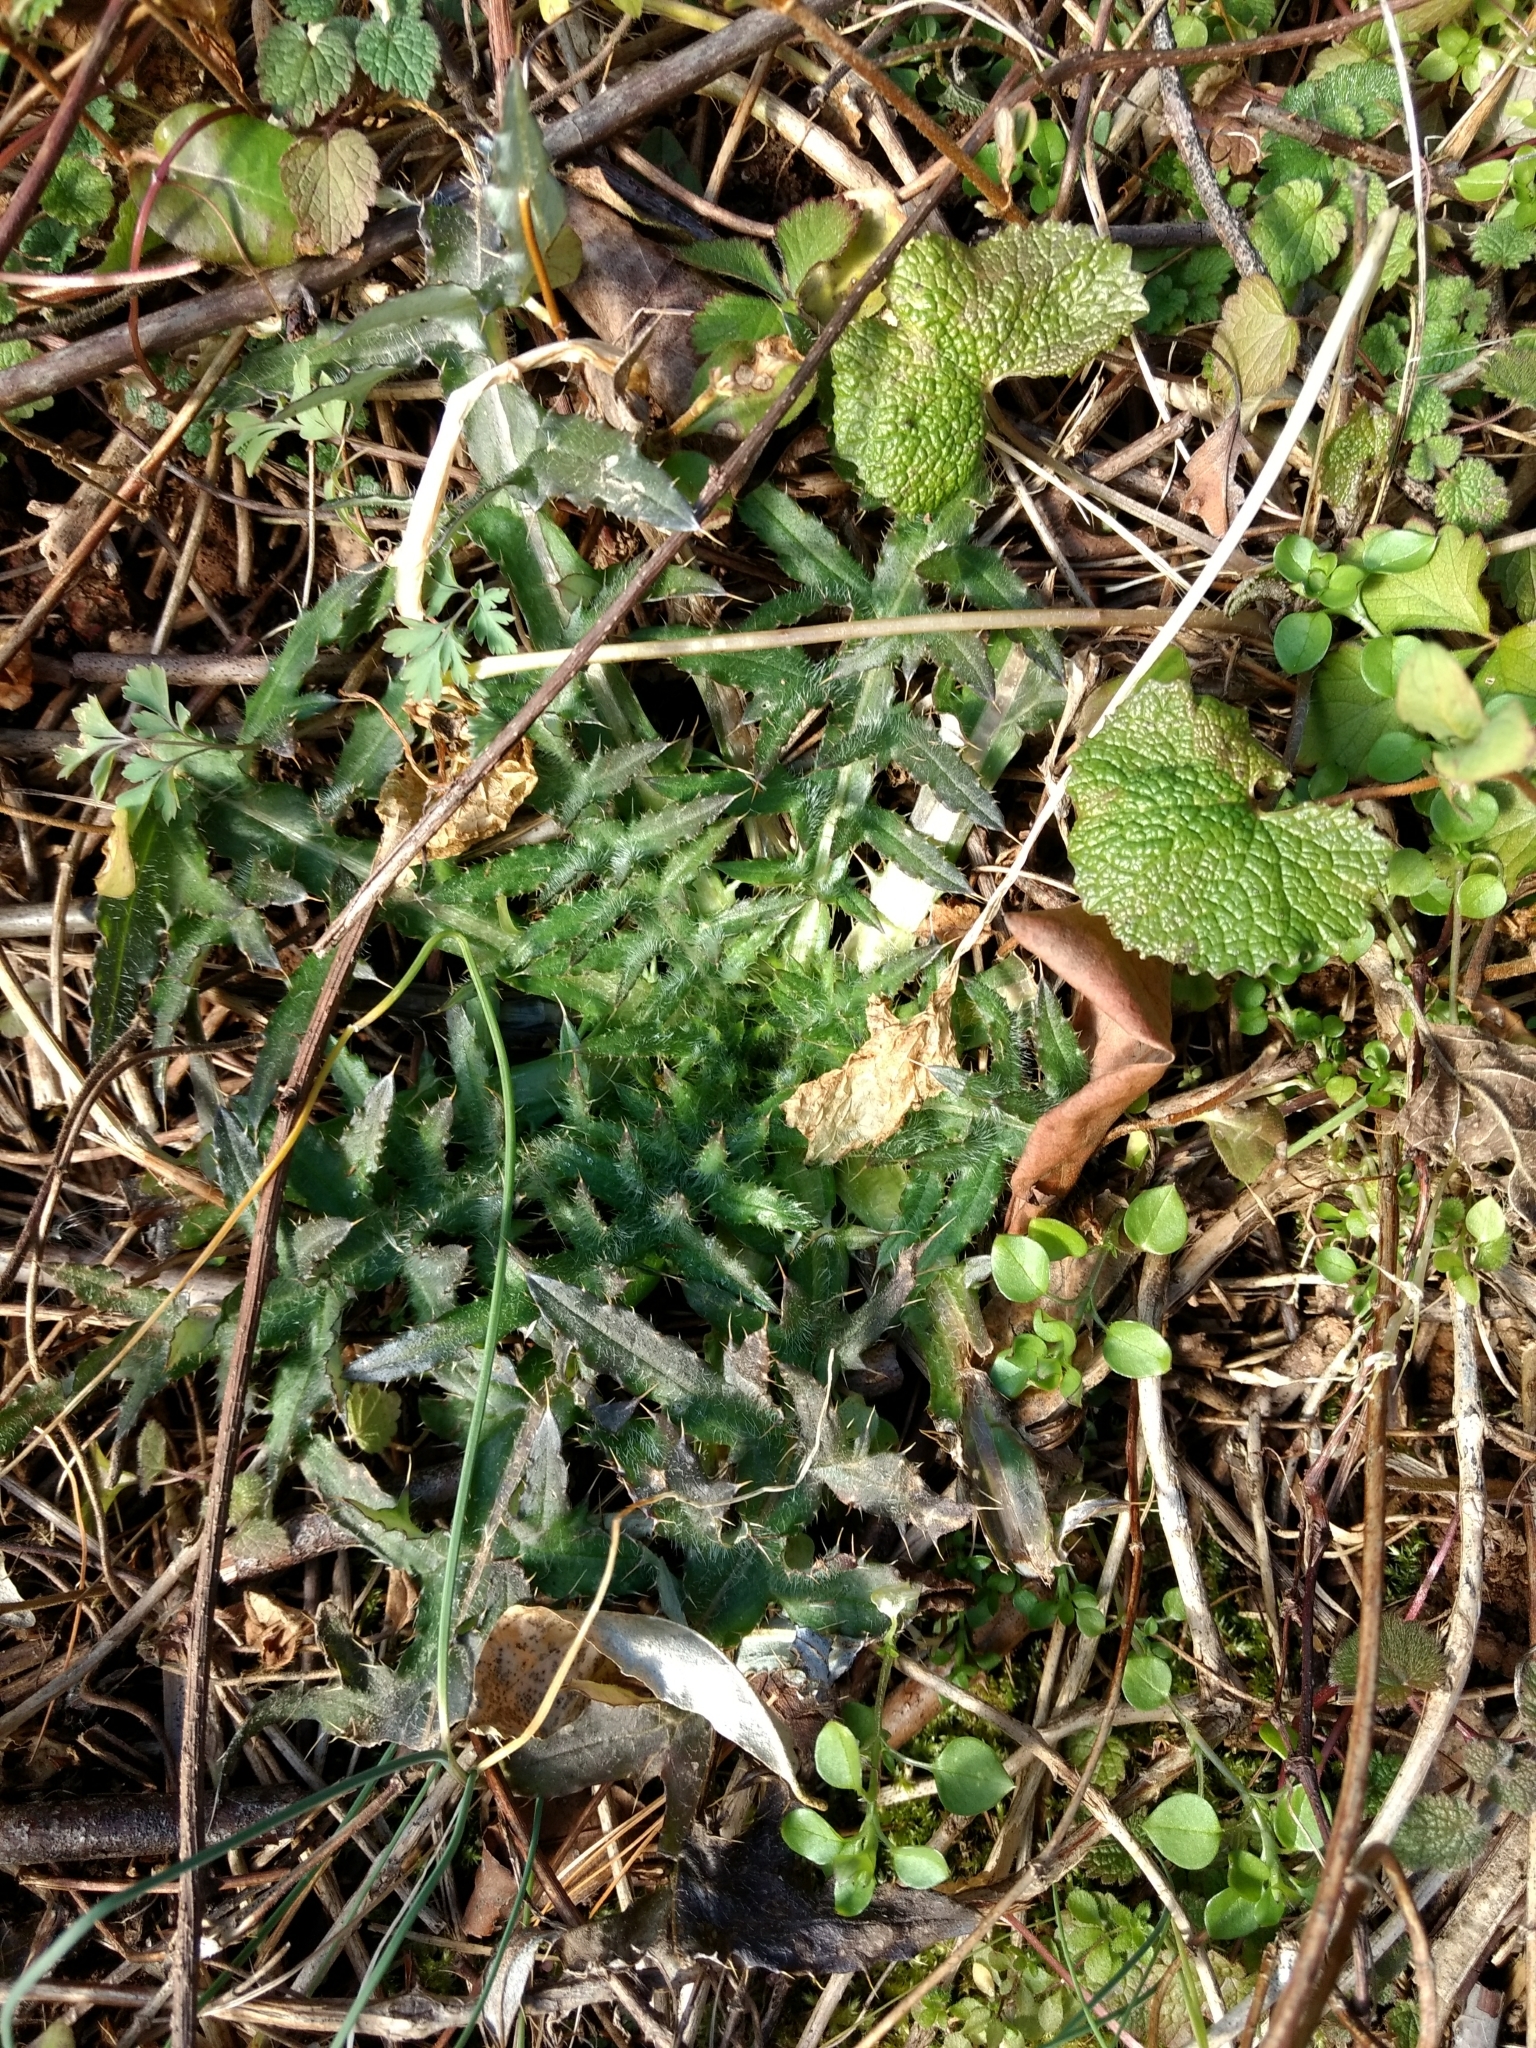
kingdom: Plantae
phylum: Tracheophyta
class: Magnoliopsida
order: Asterales
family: Asteraceae
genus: Cirsium
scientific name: Cirsium vulgare
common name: Bull thistle
